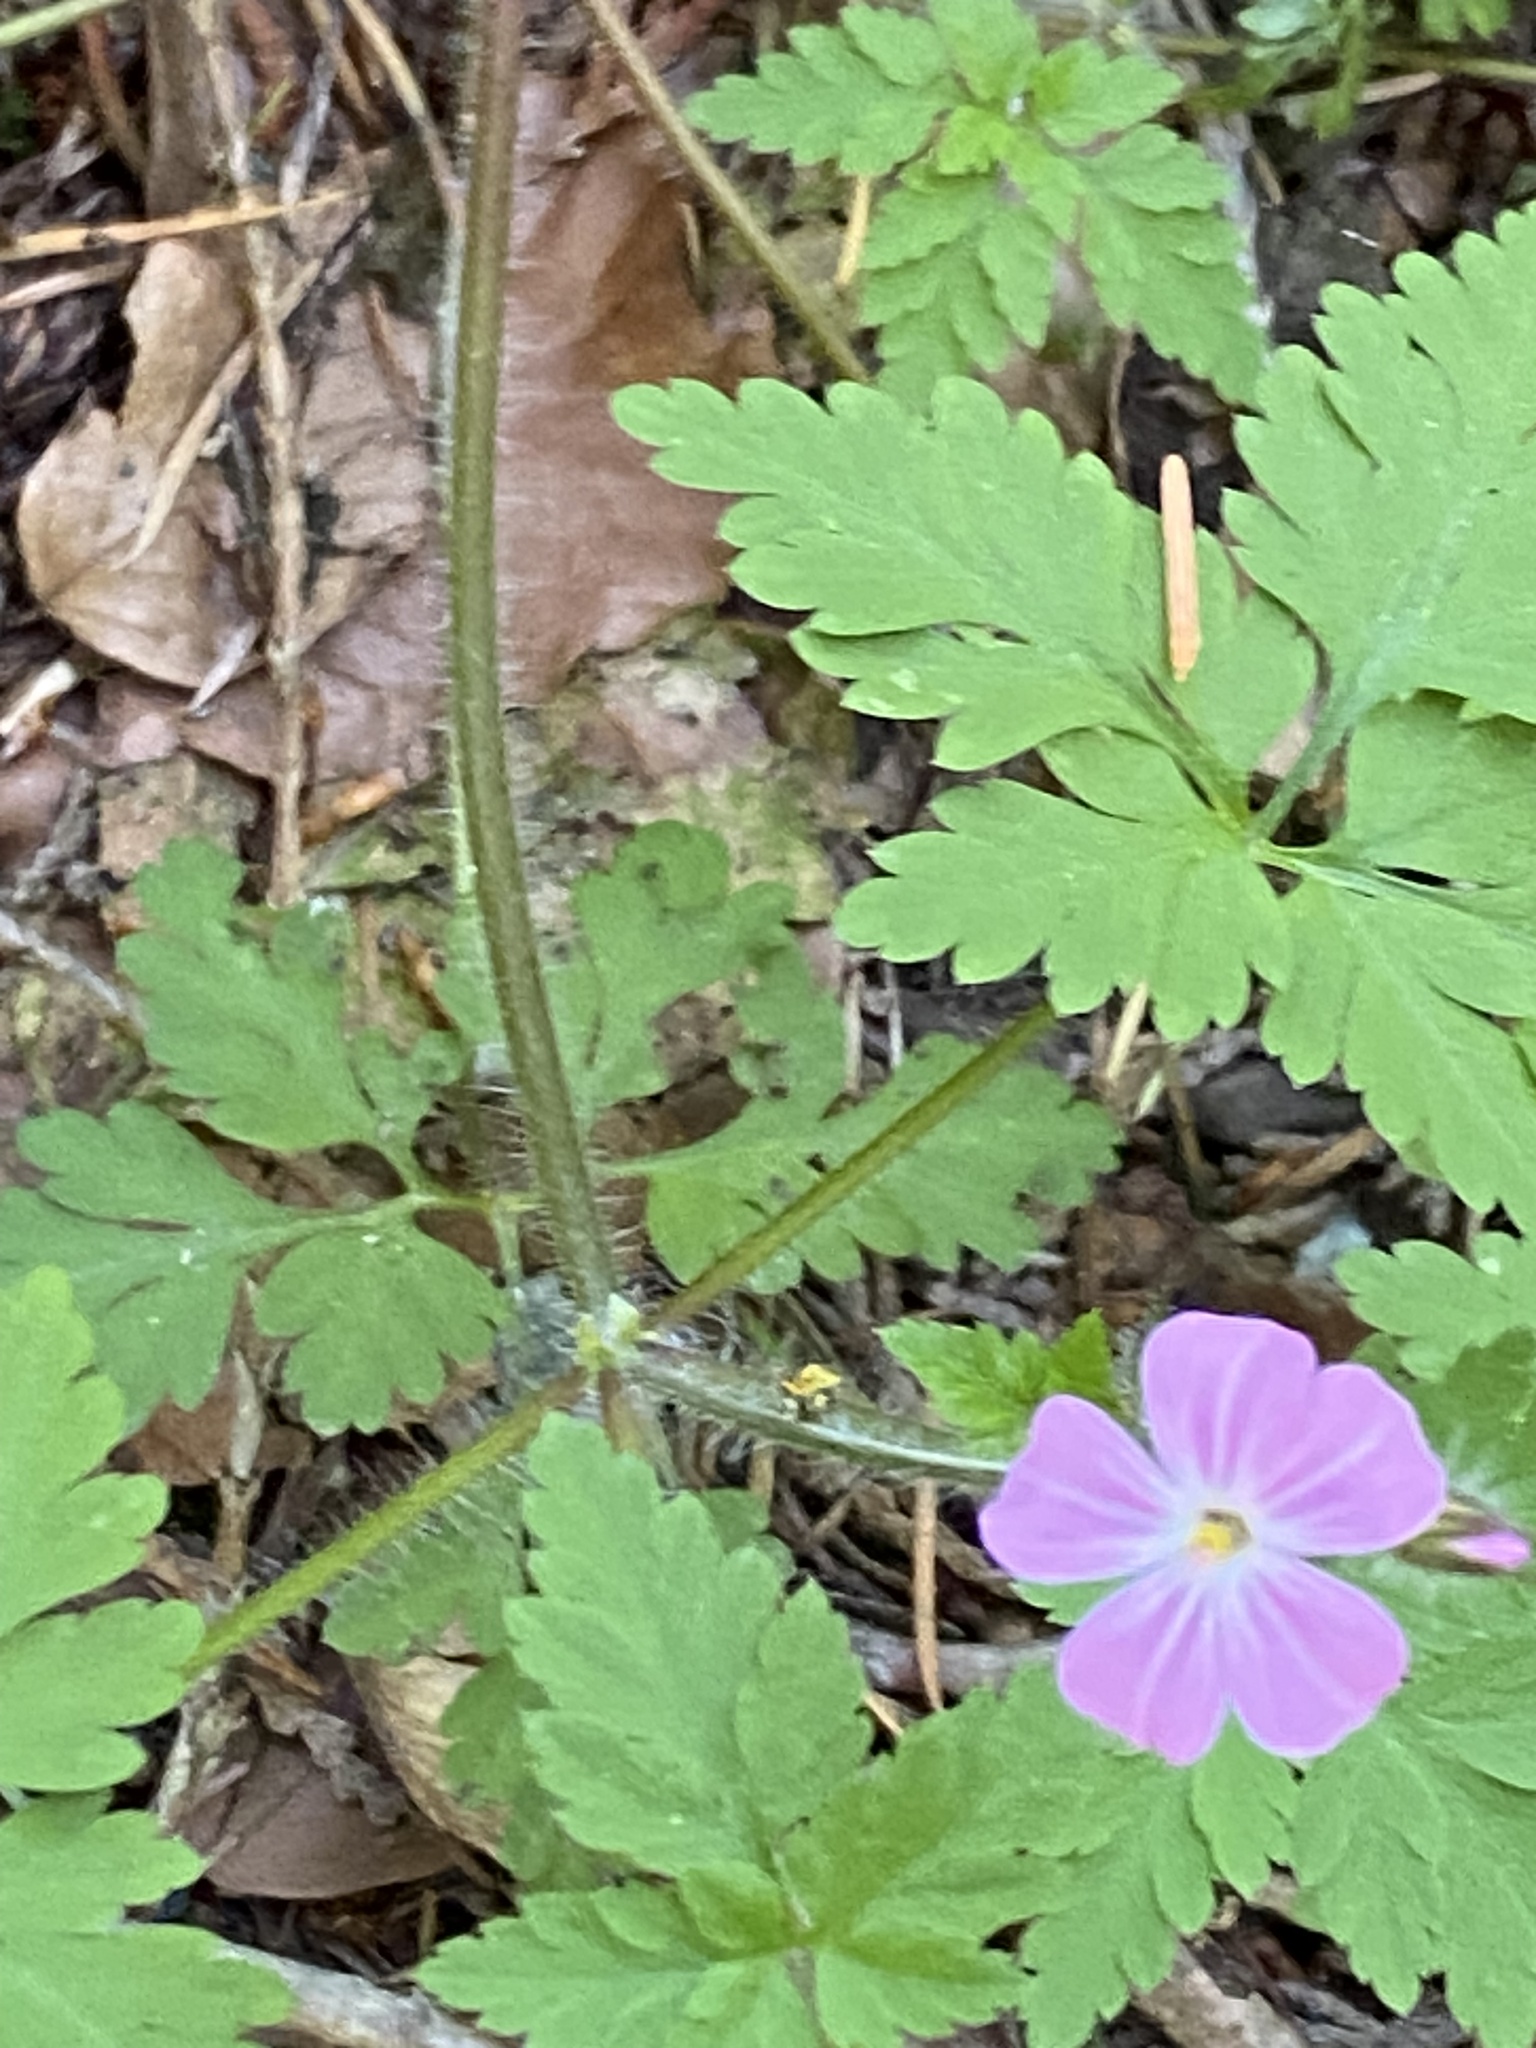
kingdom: Plantae
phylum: Tracheophyta
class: Magnoliopsida
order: Geraniales
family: Geraniaceae
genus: Geranium
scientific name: Geranium robertianum
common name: Herb-robert
